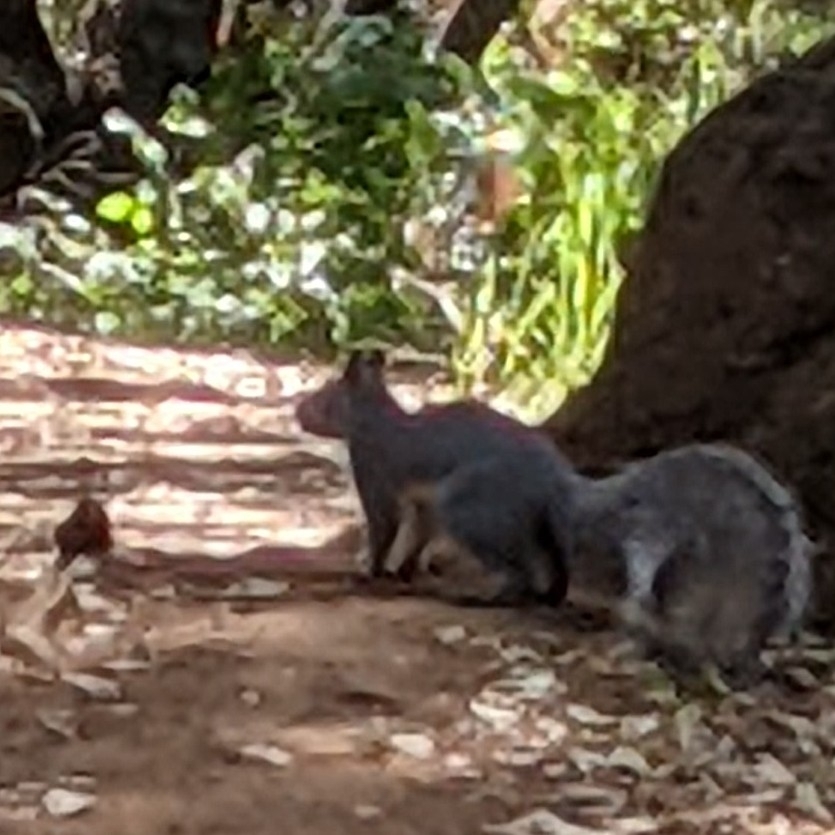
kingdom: Animalia
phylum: Chordata
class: Mammalia
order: Rodentia
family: Sciuridae
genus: Sciurus
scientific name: Sciurus griseus
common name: Western gray squirrel
